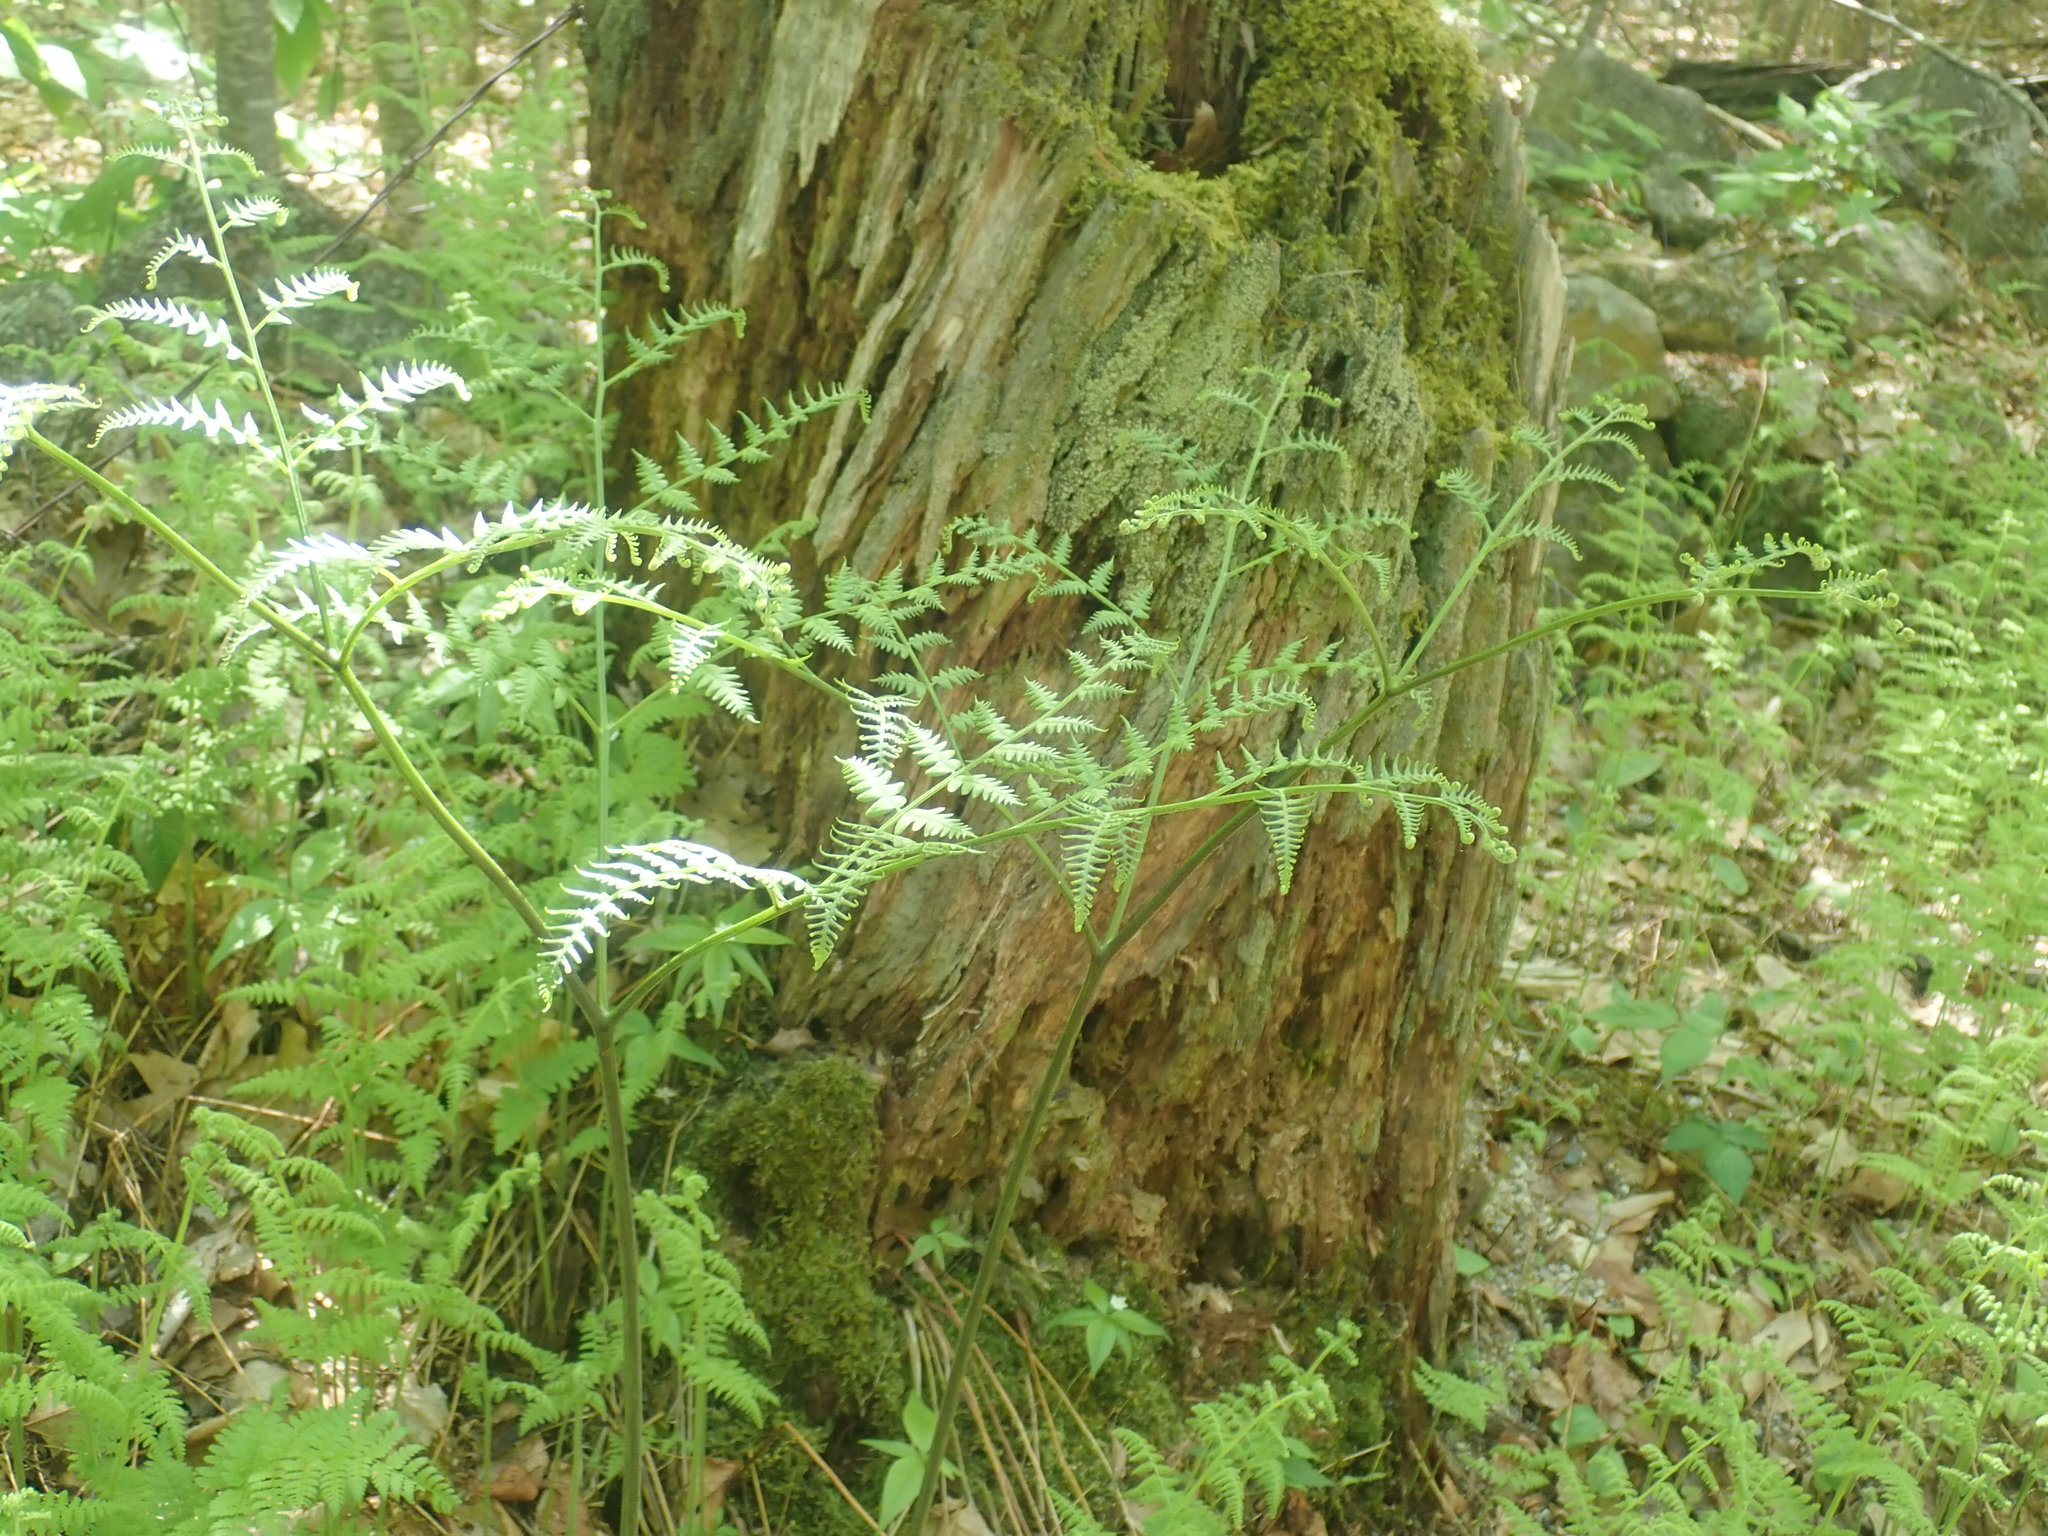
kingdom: Plantae
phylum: Tracheophyta
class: Polypodiopsida
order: Polypodiales
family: Dennstaedtiaceae
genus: Pteridium
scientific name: Pteridium aquilinum
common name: Bracken
